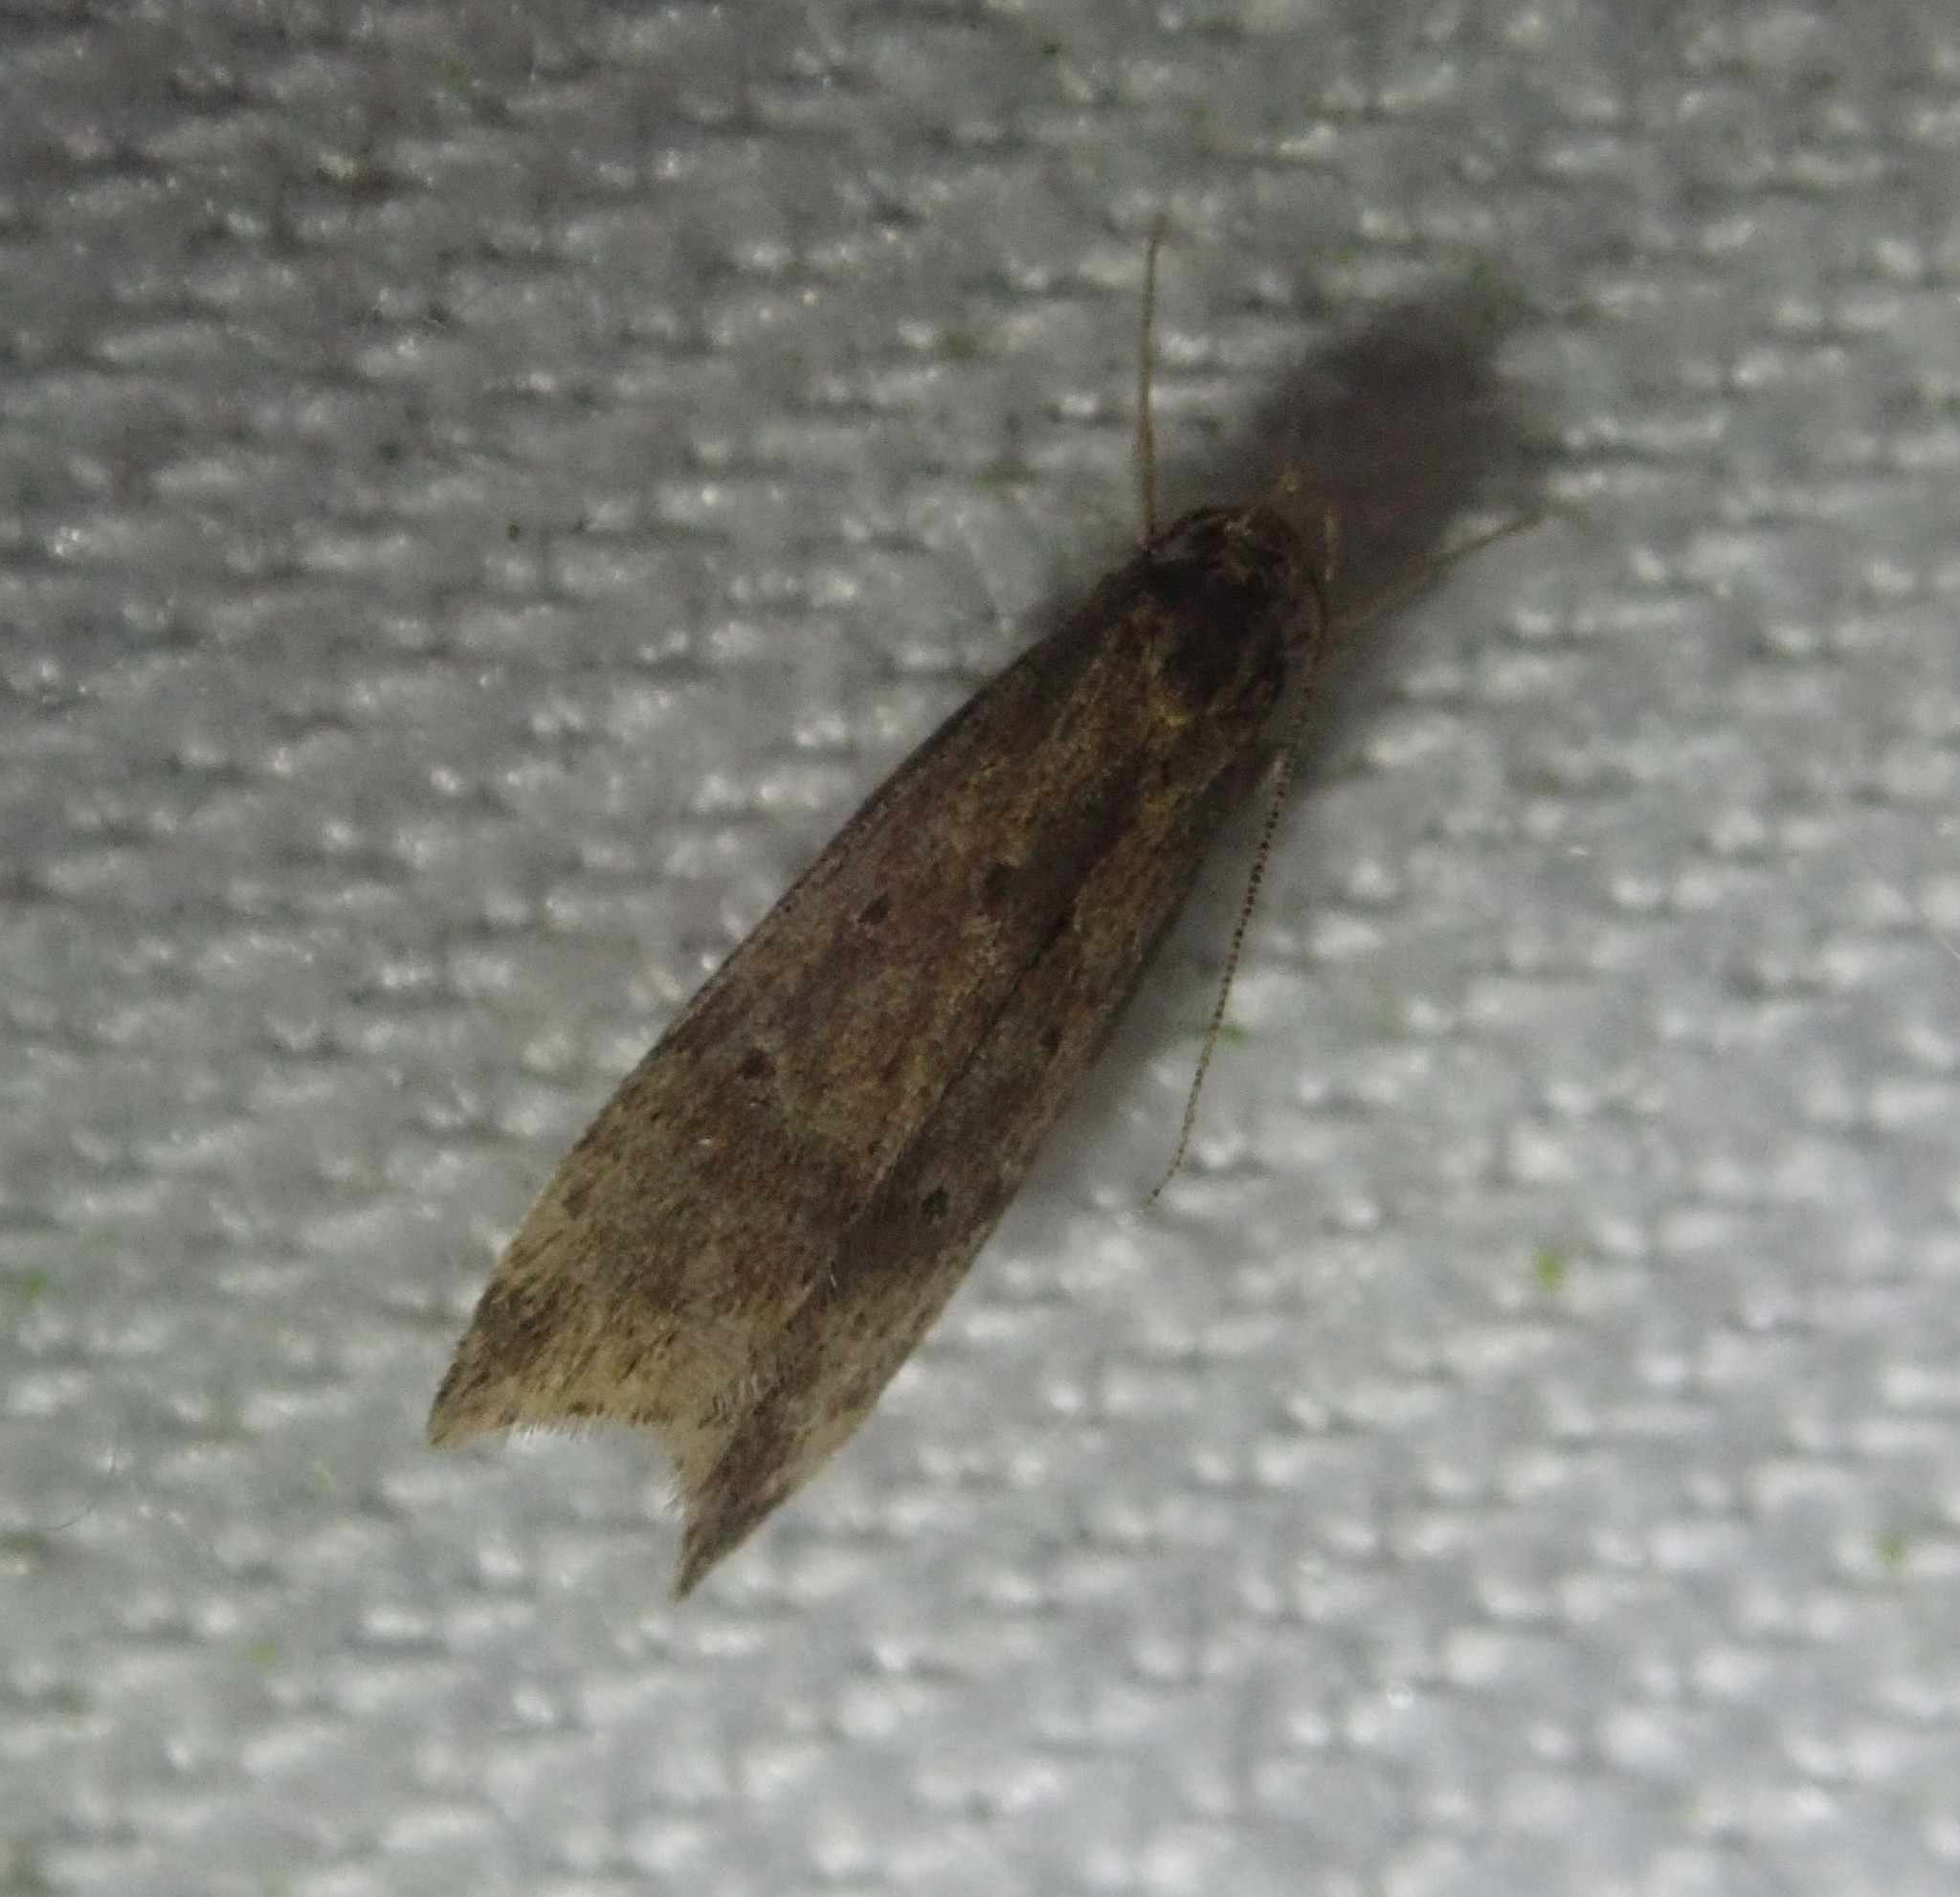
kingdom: Animalia
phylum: Arthropoda
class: Insecta
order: Lepidoptera
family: Gelechiidae
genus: Brachmia
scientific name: Brachmia blandella
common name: Gorse crest
